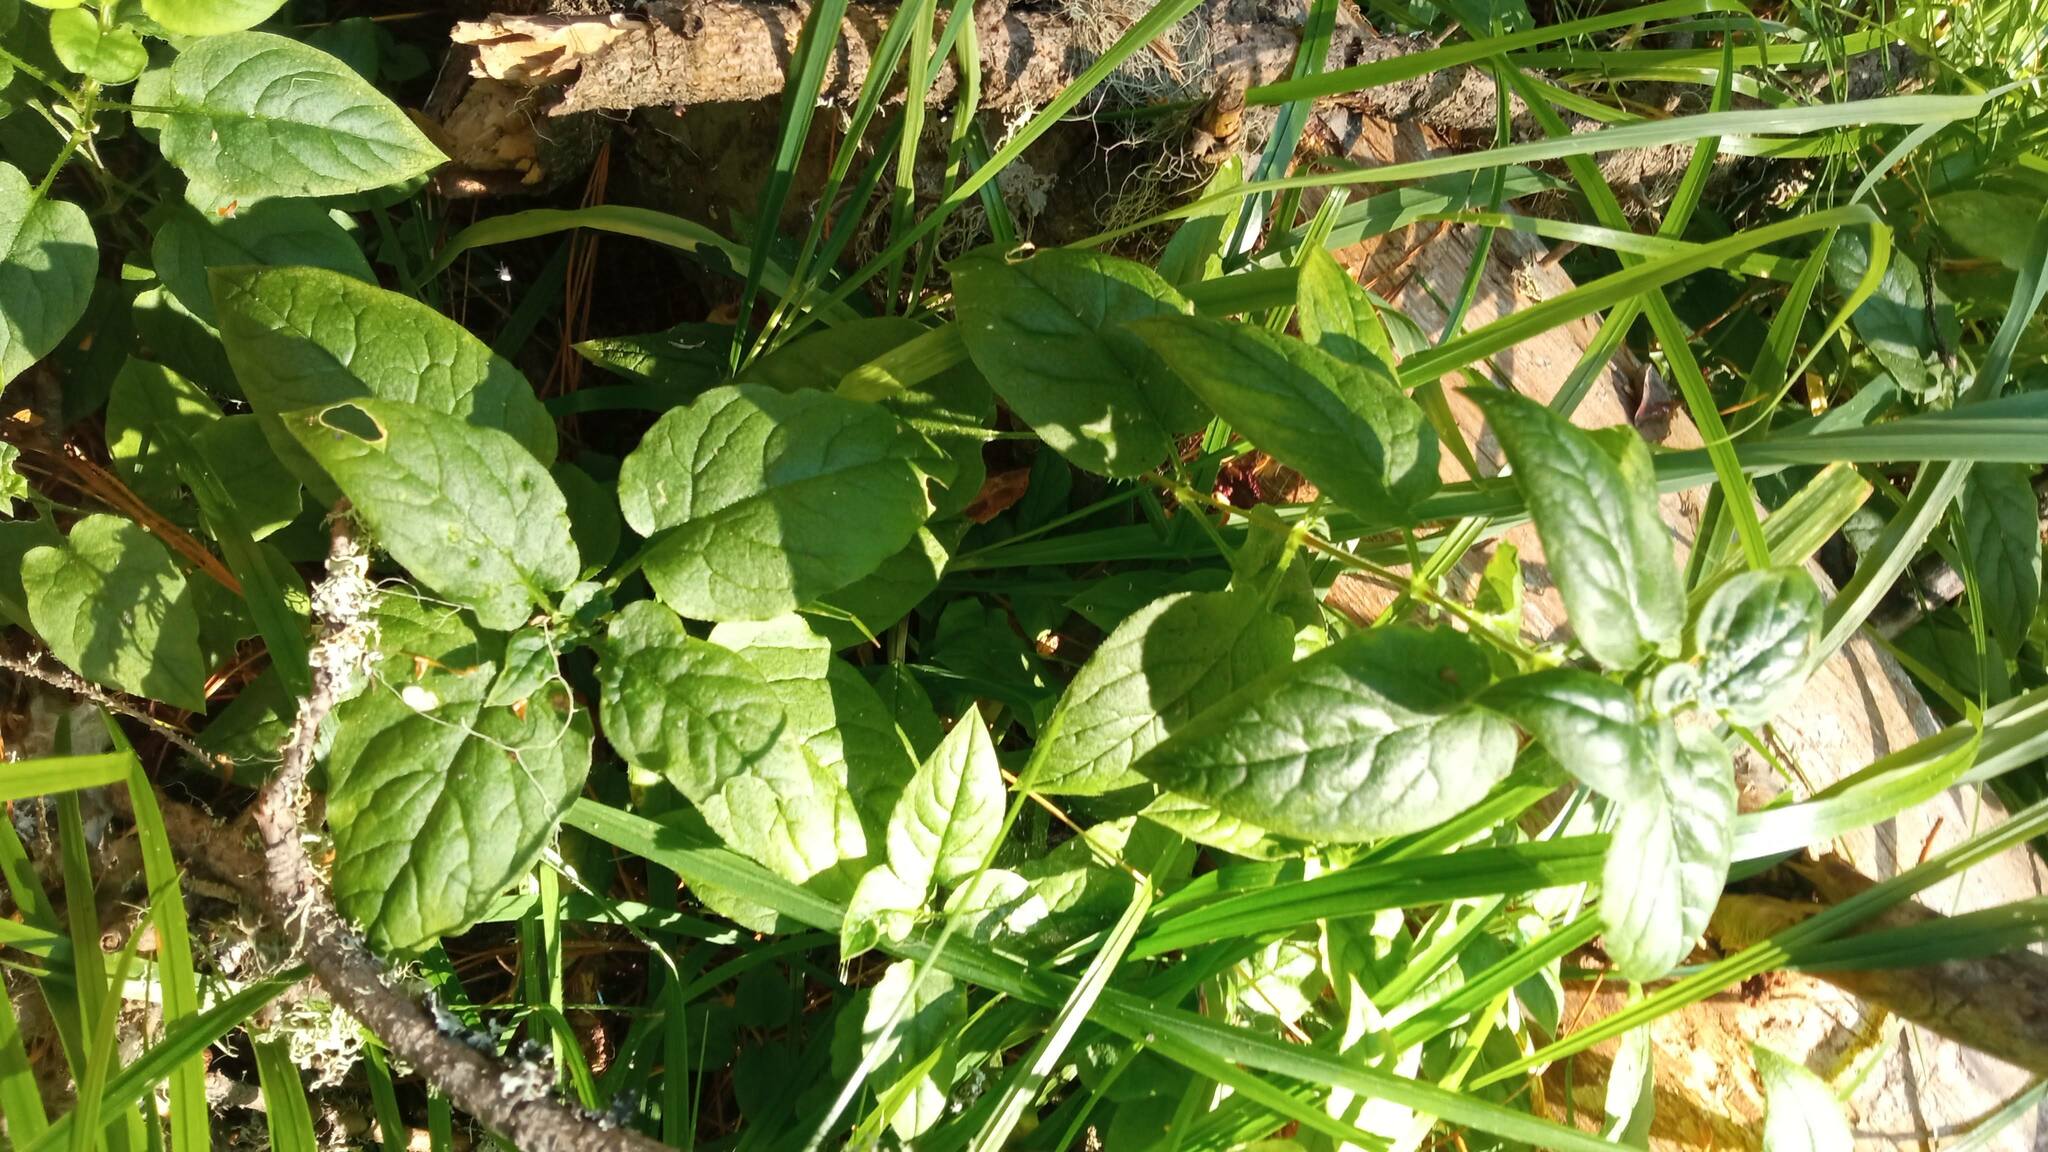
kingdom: Plantae
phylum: Tracheophyta
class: Magnoliopsida
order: Caryophyllales
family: Caryophyllaceae
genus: Stellaria
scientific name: Stellaria bungeana
